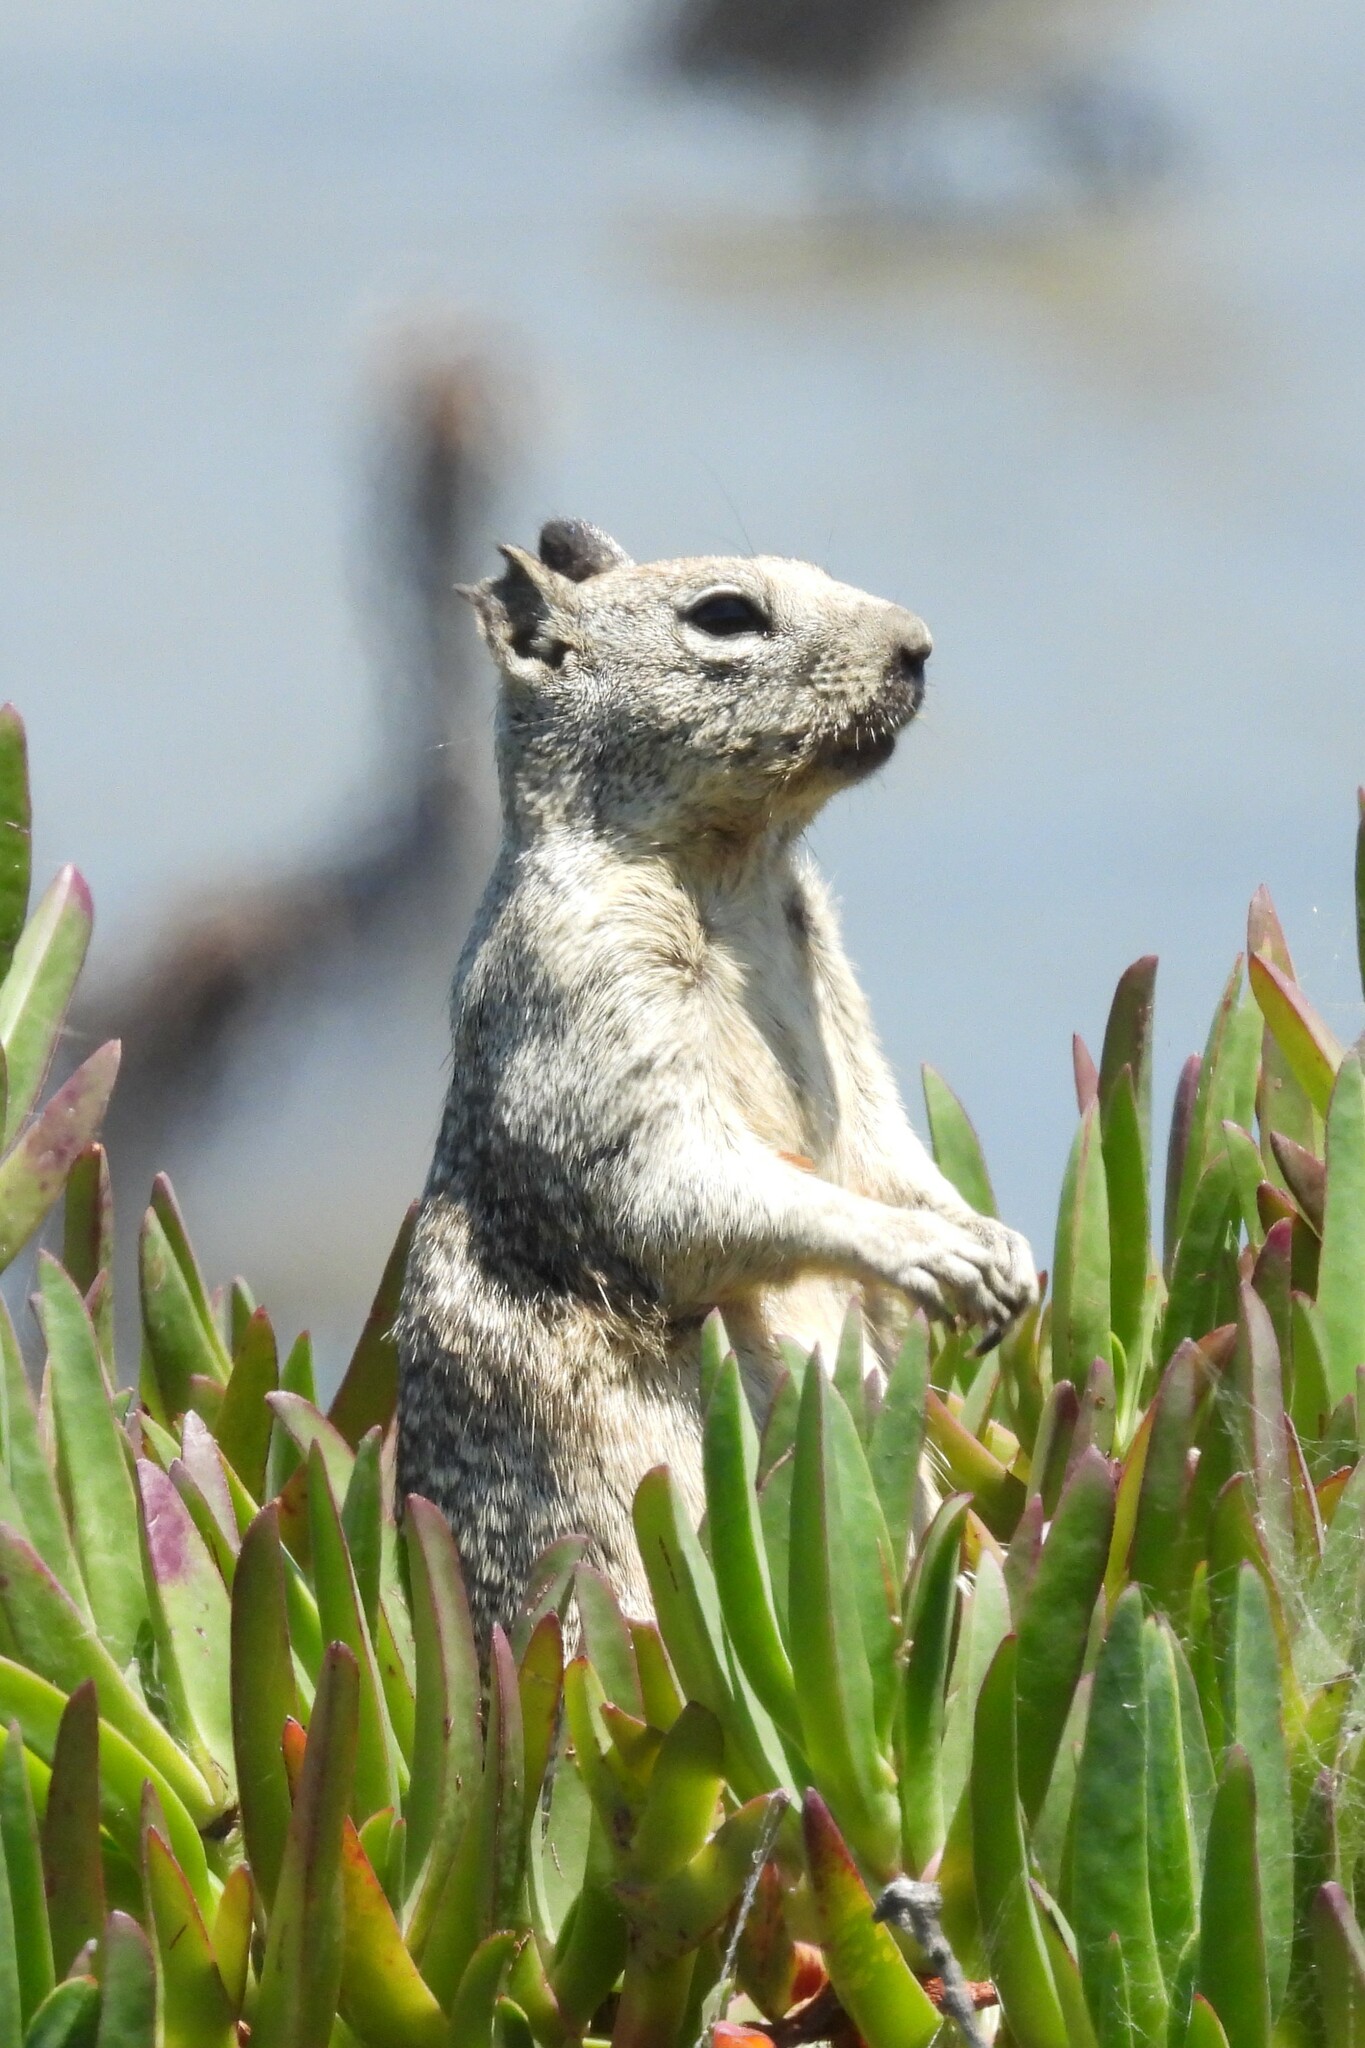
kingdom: Animalia
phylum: Chordata
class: Mammalia
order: Rodentia
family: Sciuridae
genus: Otospermophilus
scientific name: Otospermophilus beecheyi
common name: California ground squirrel
